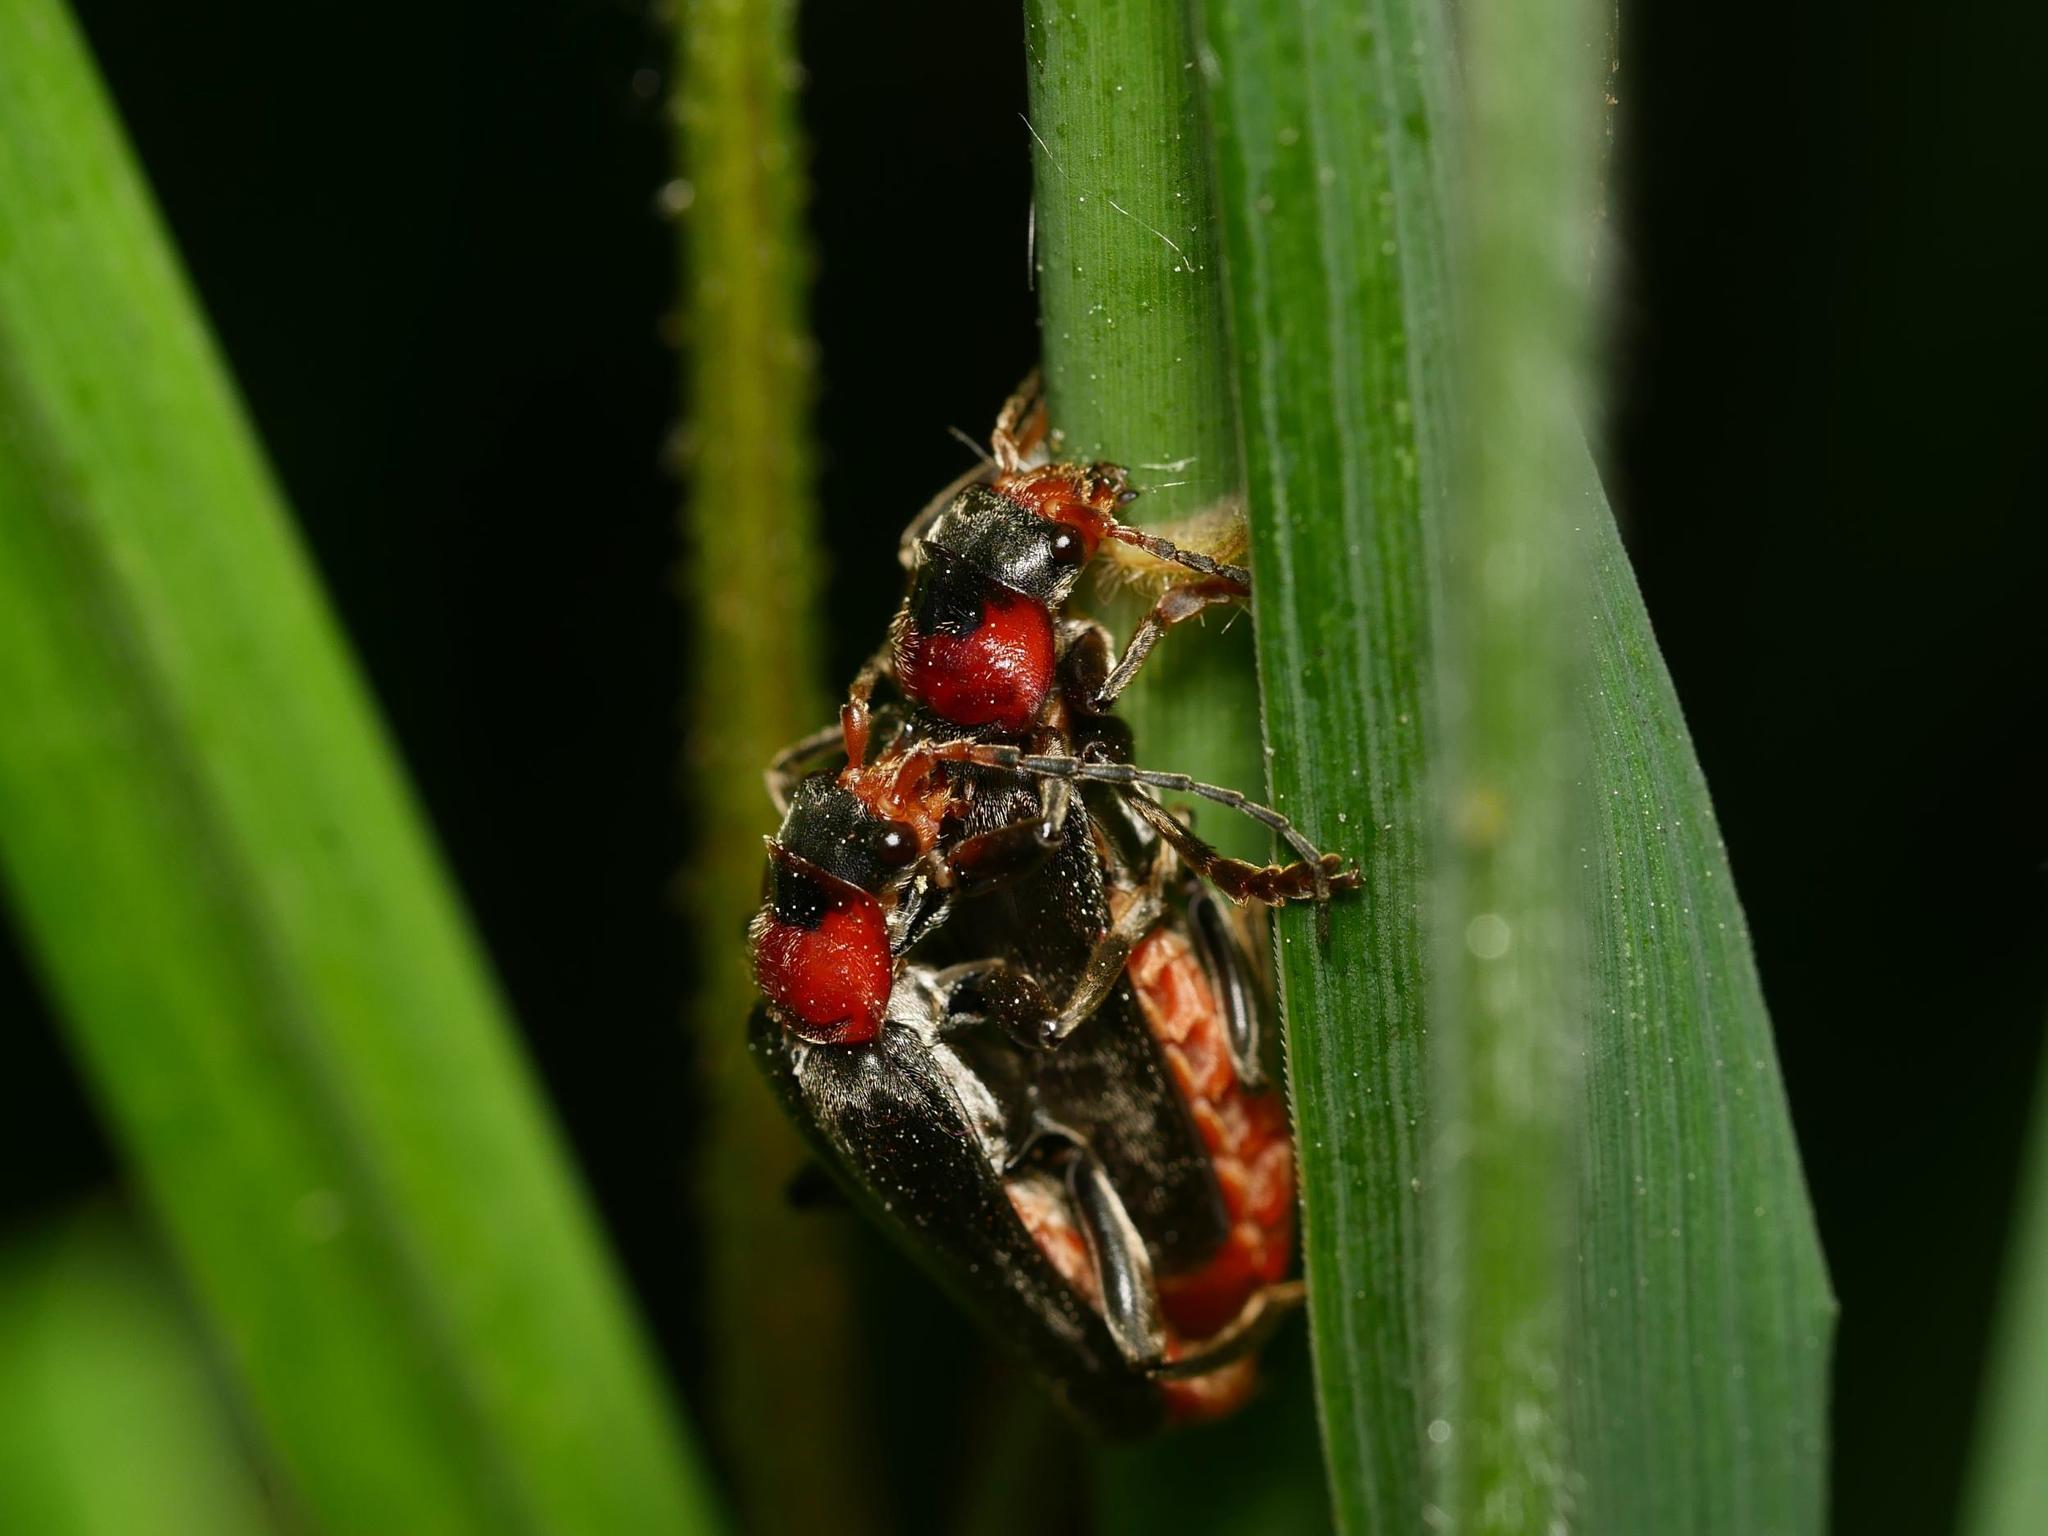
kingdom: Animalia
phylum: Arthropoda
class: Insecta
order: Coleoptera
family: Cantharidae
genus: Cantharis
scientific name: Cantharis fusca
